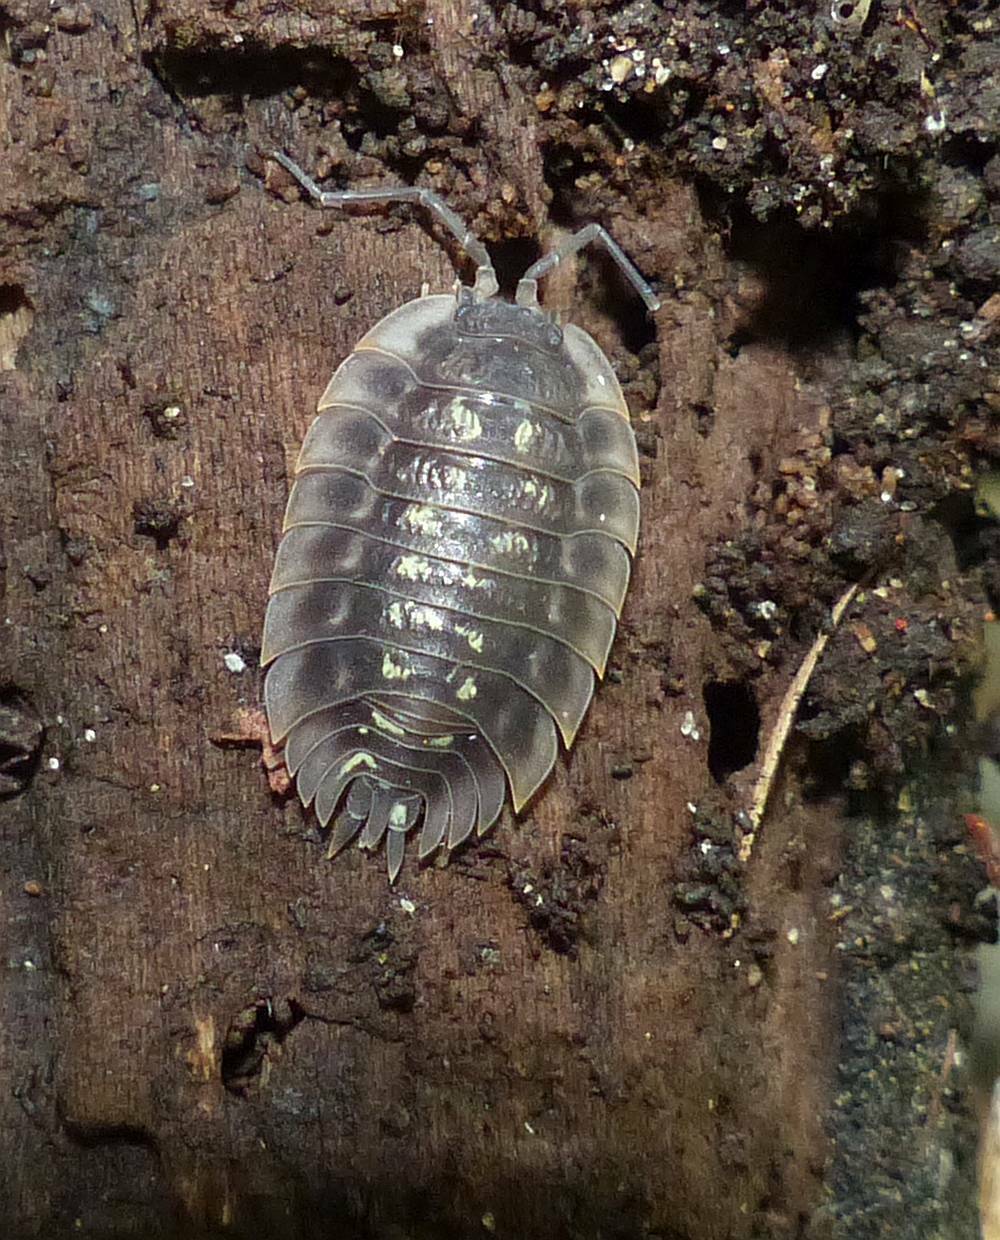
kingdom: Animalia
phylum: Arthropoda
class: Malacostraca
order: Isopoda
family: Oniscidae
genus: Oniscus
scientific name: Oniscus asellus
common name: Common shiny woodlouse
